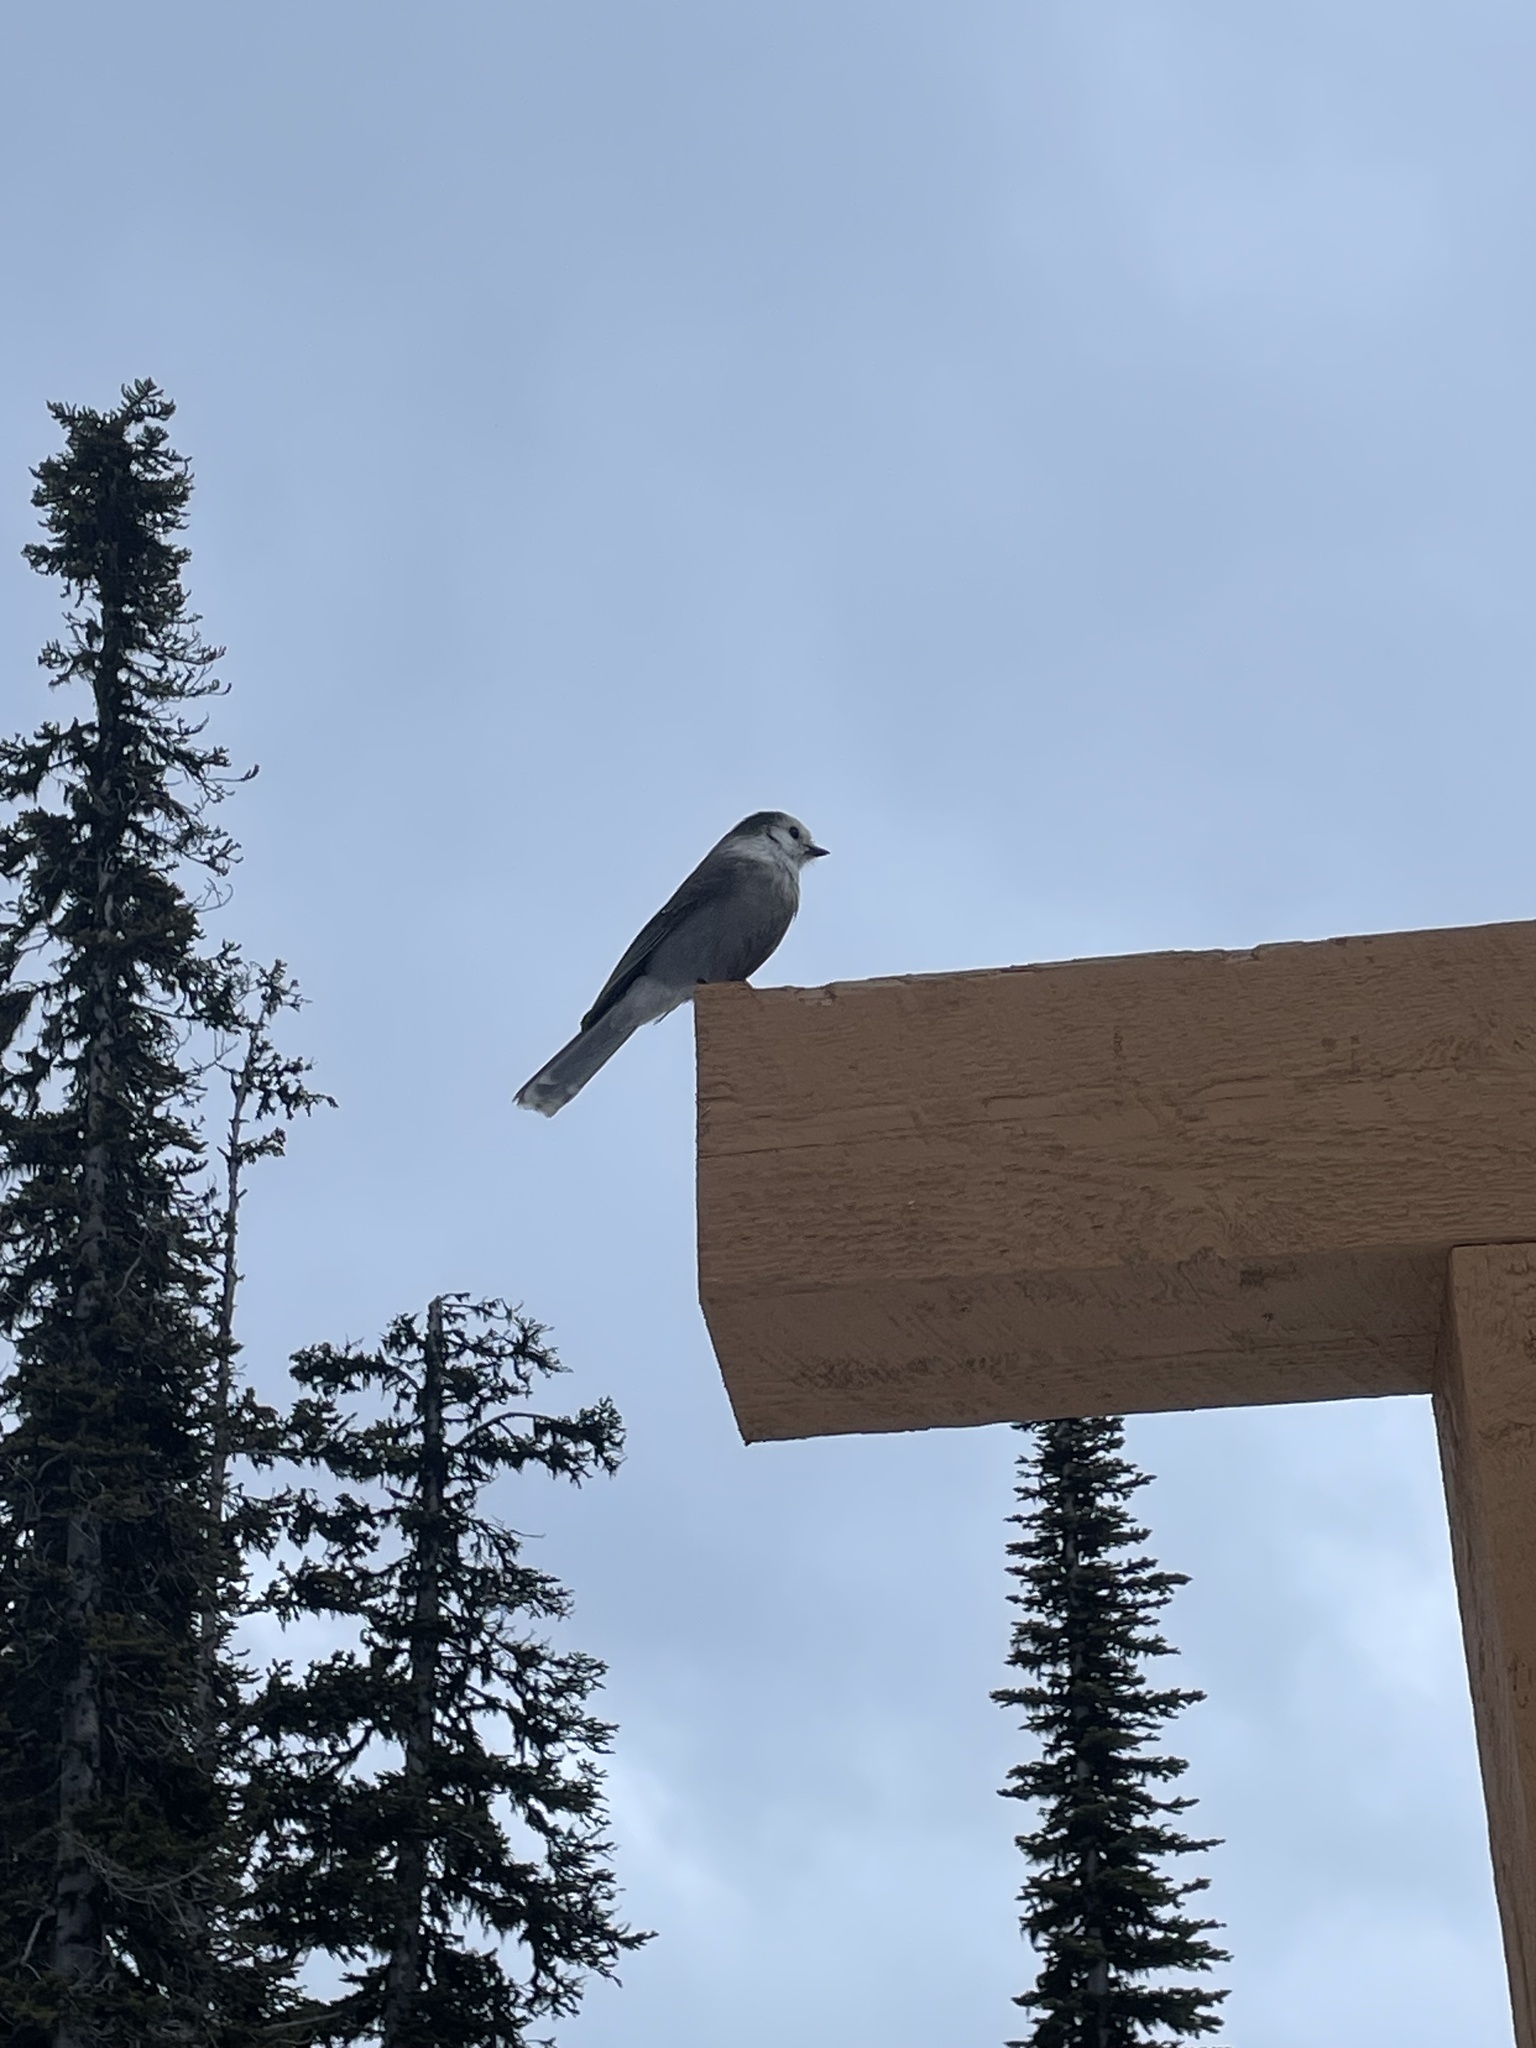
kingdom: Animalia
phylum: Chordata
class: Aves
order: Passeriformes
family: Corvidae
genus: Perisoreus
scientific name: Perisoreus canadensis
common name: Gray jay
